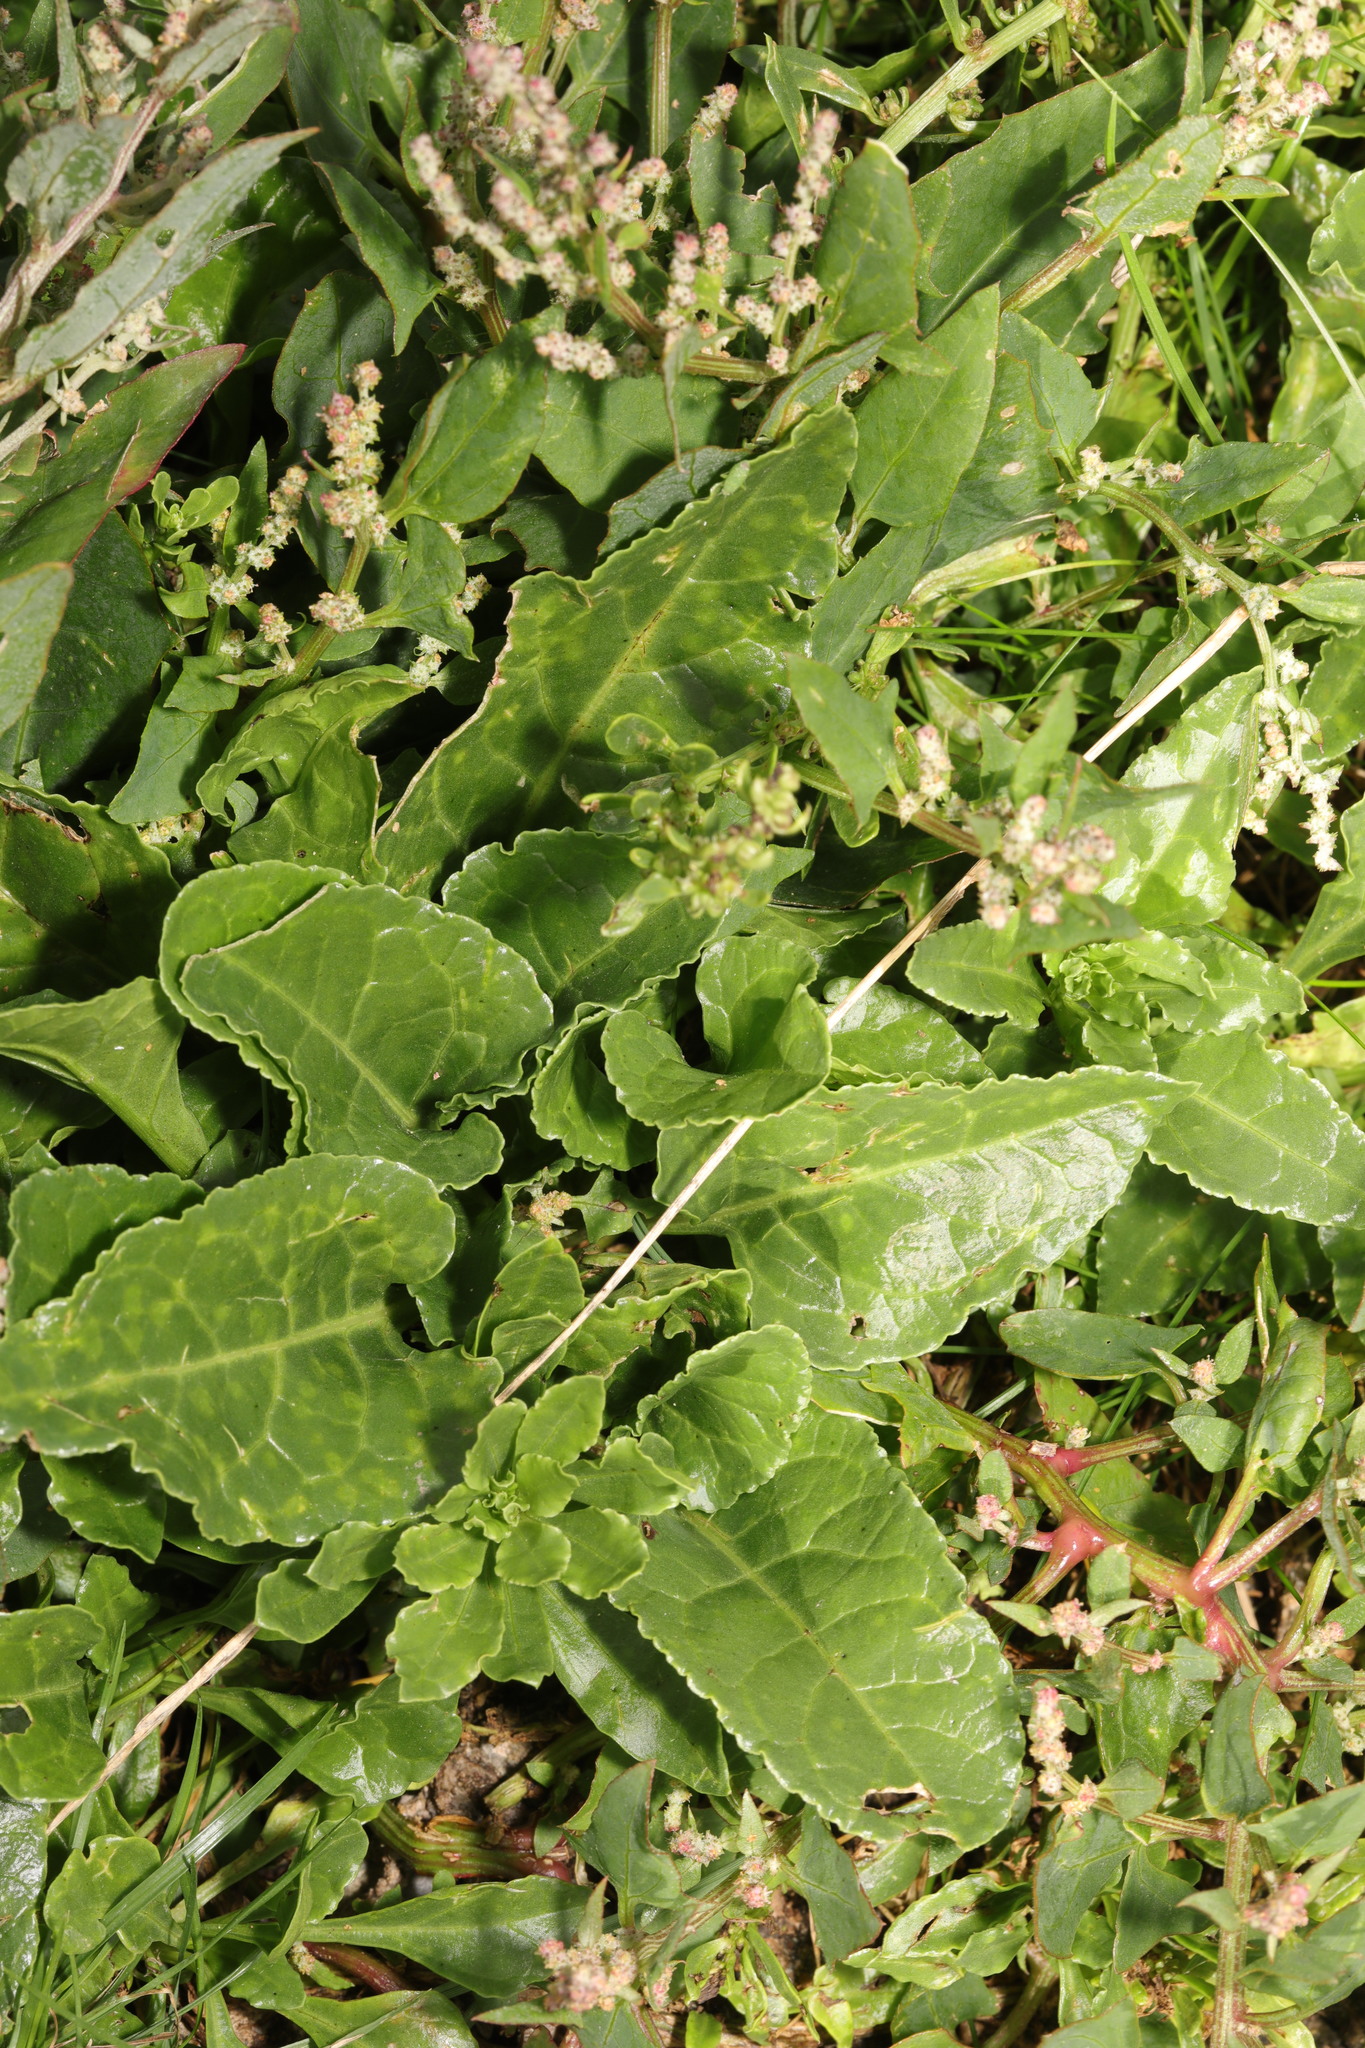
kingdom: Plantae
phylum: Tracheophyta
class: Magnoliopsida
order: Caryophyllales
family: Amaranthaceae
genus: Beta
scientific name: Beta vulgaris
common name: Beet
